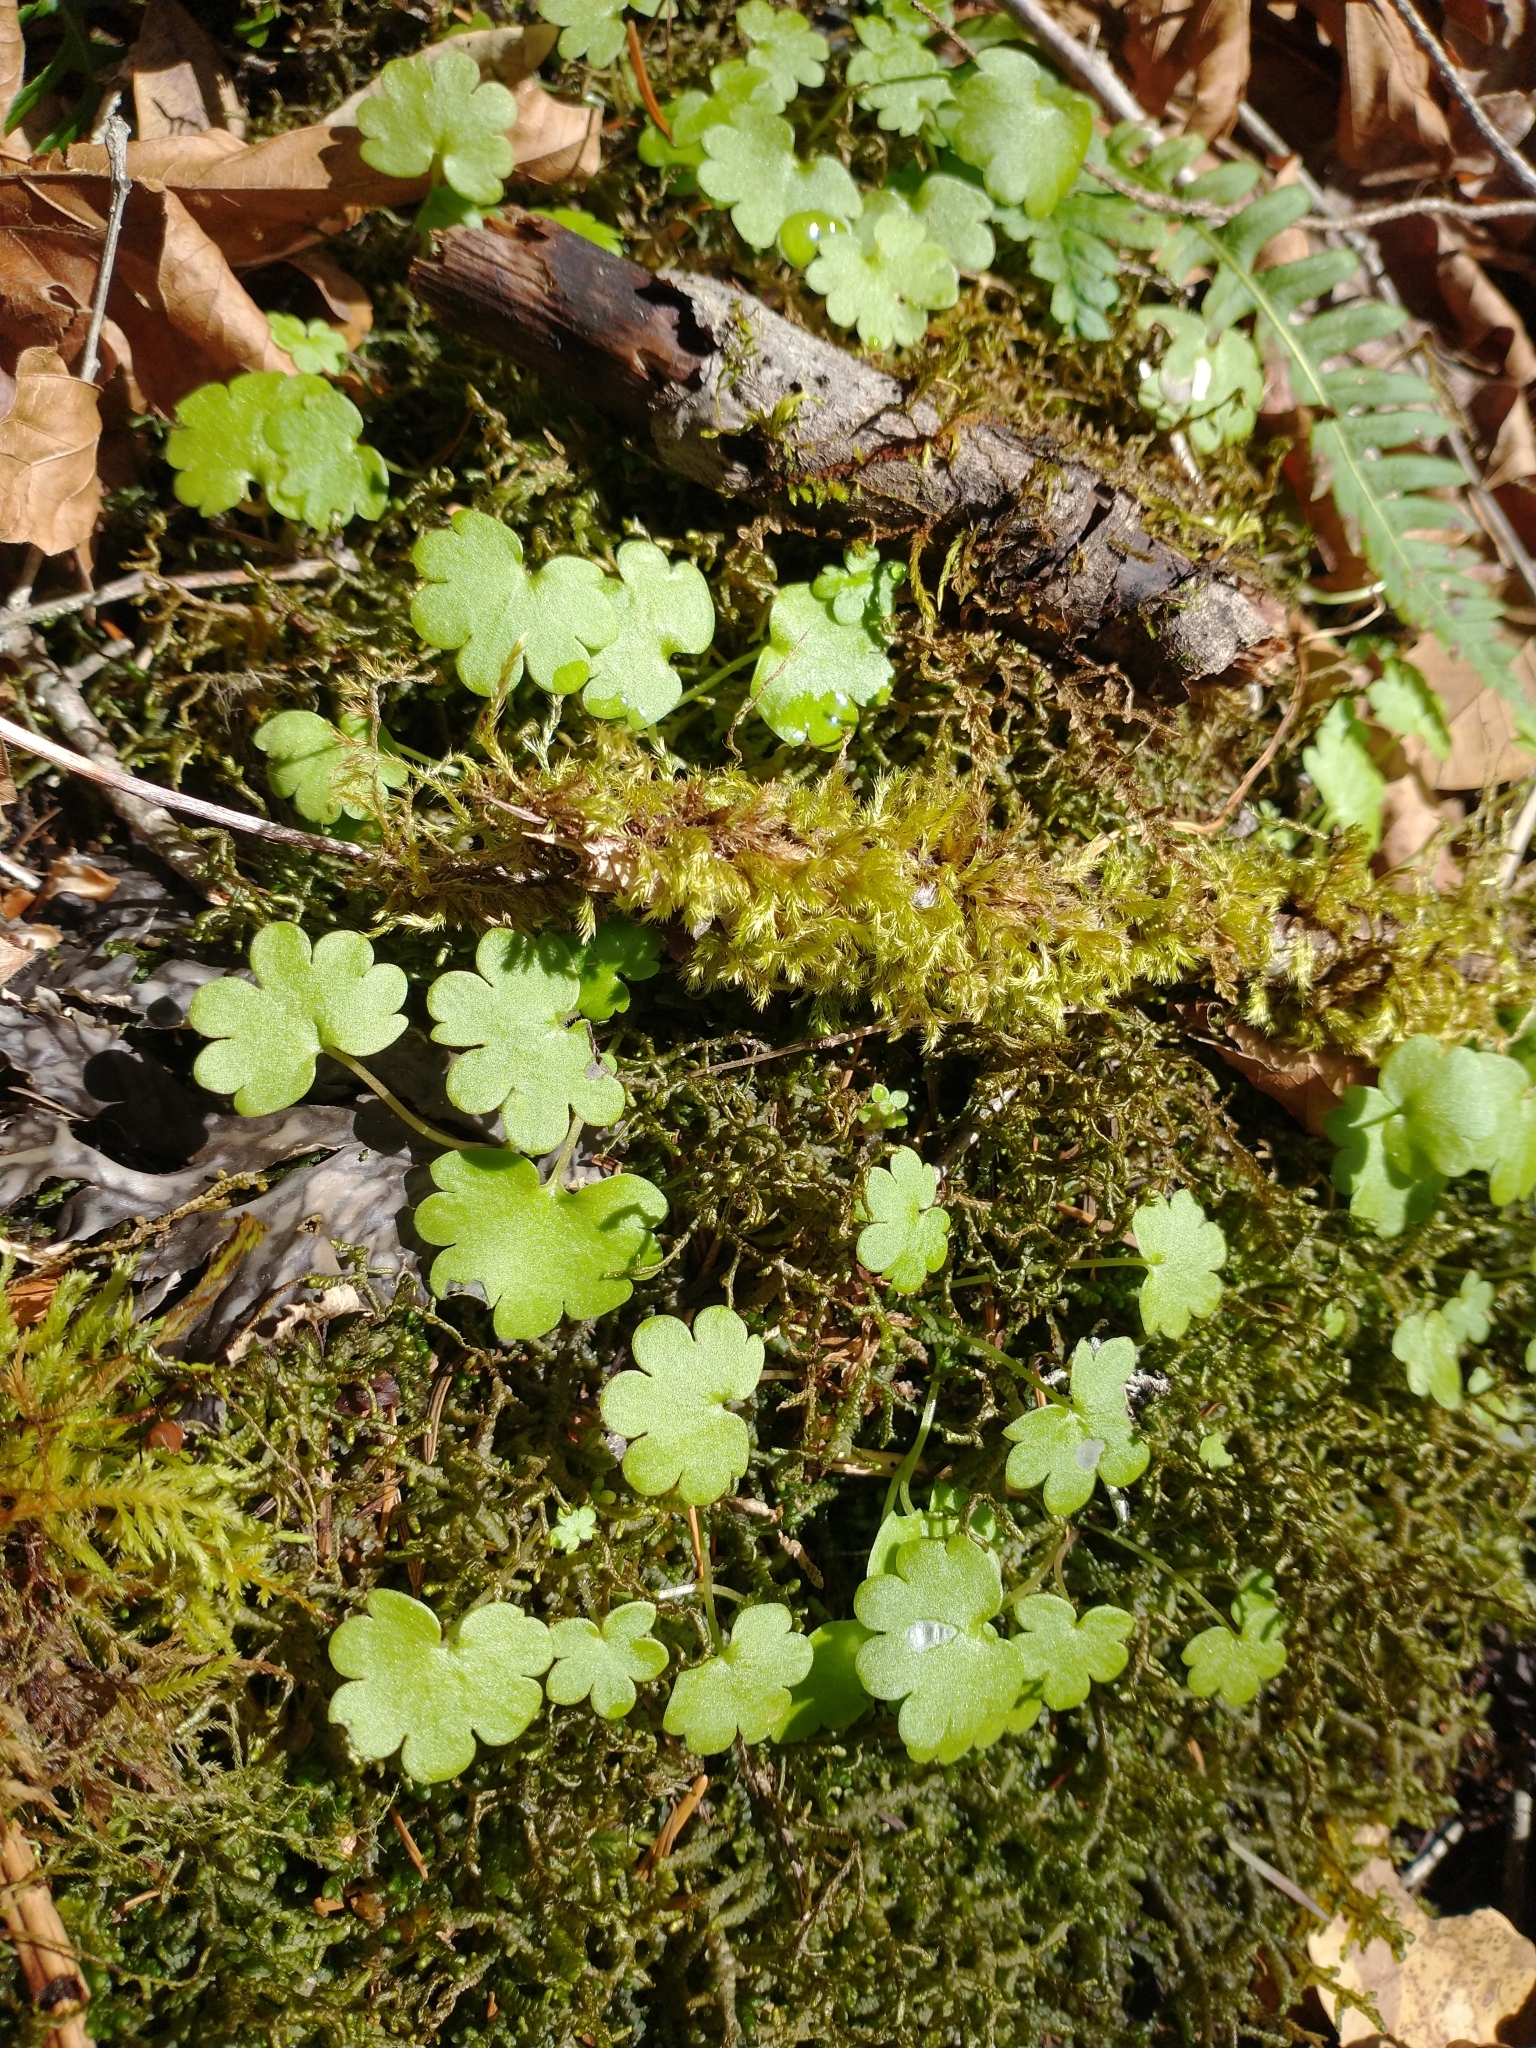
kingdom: Plantae
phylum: Tracheophyta
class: Magnoliopsida
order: Boraginales
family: Hydrophyllaceae
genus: Romanzoffia
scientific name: Romanzoffia californica
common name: California mistmaiden
